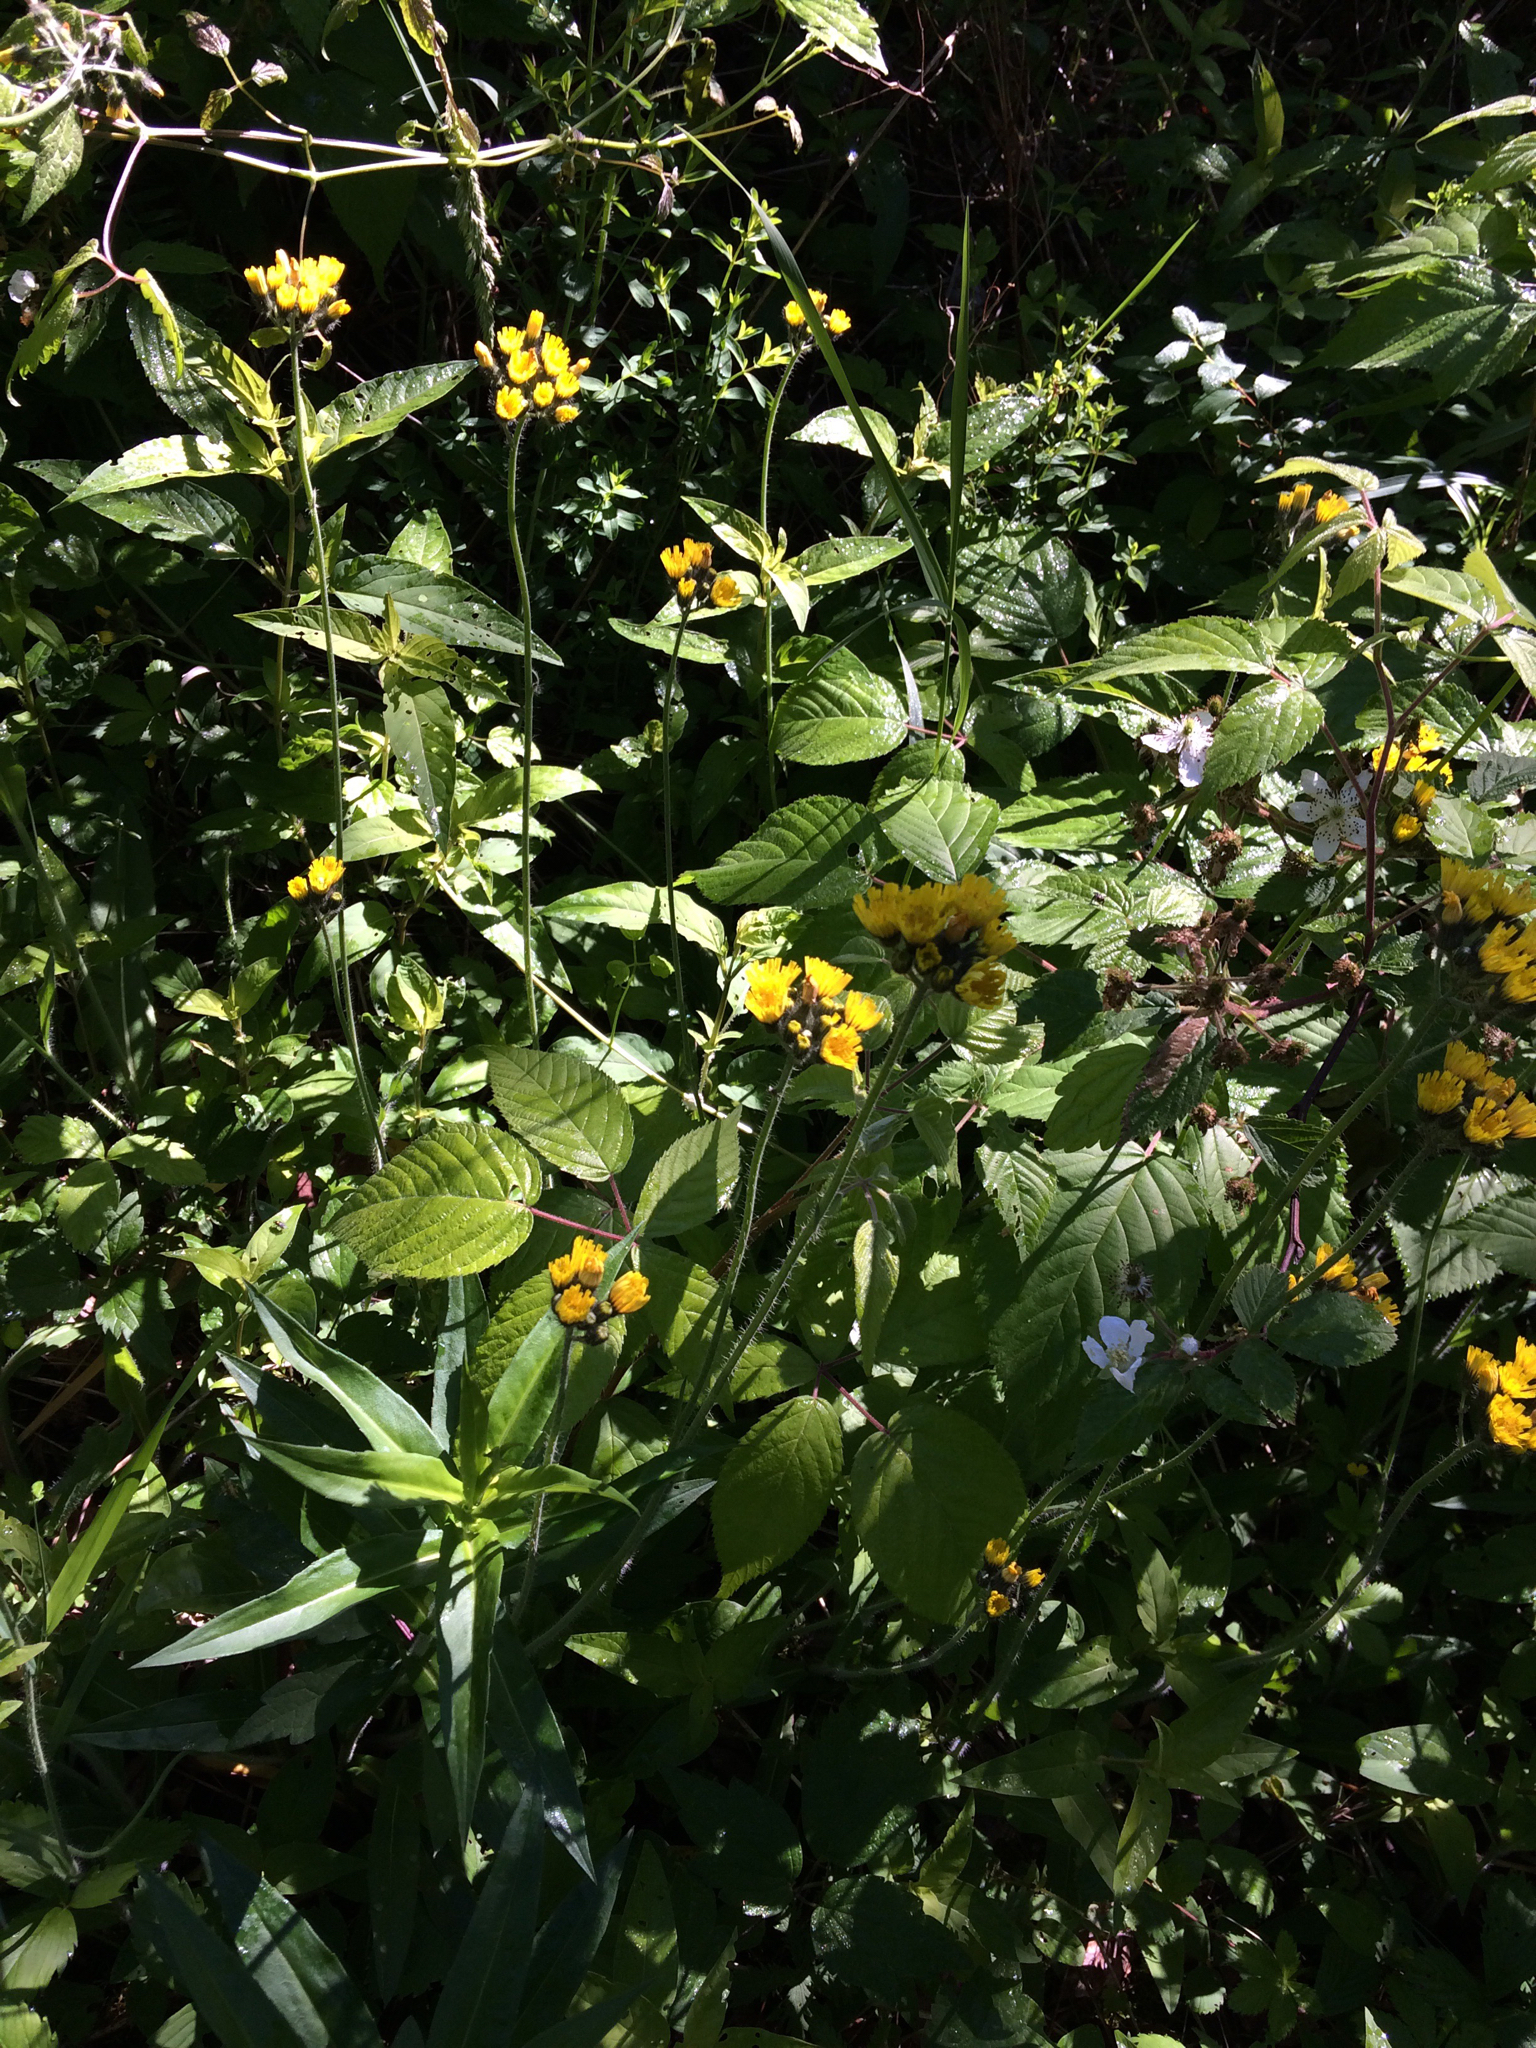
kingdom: Plantae
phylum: Tracheophyta
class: Magnoliopsida
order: Asterales
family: Asteraceae
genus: Pilosella
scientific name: Pilosella caespitosa
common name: Yellow fox-and-cubs
